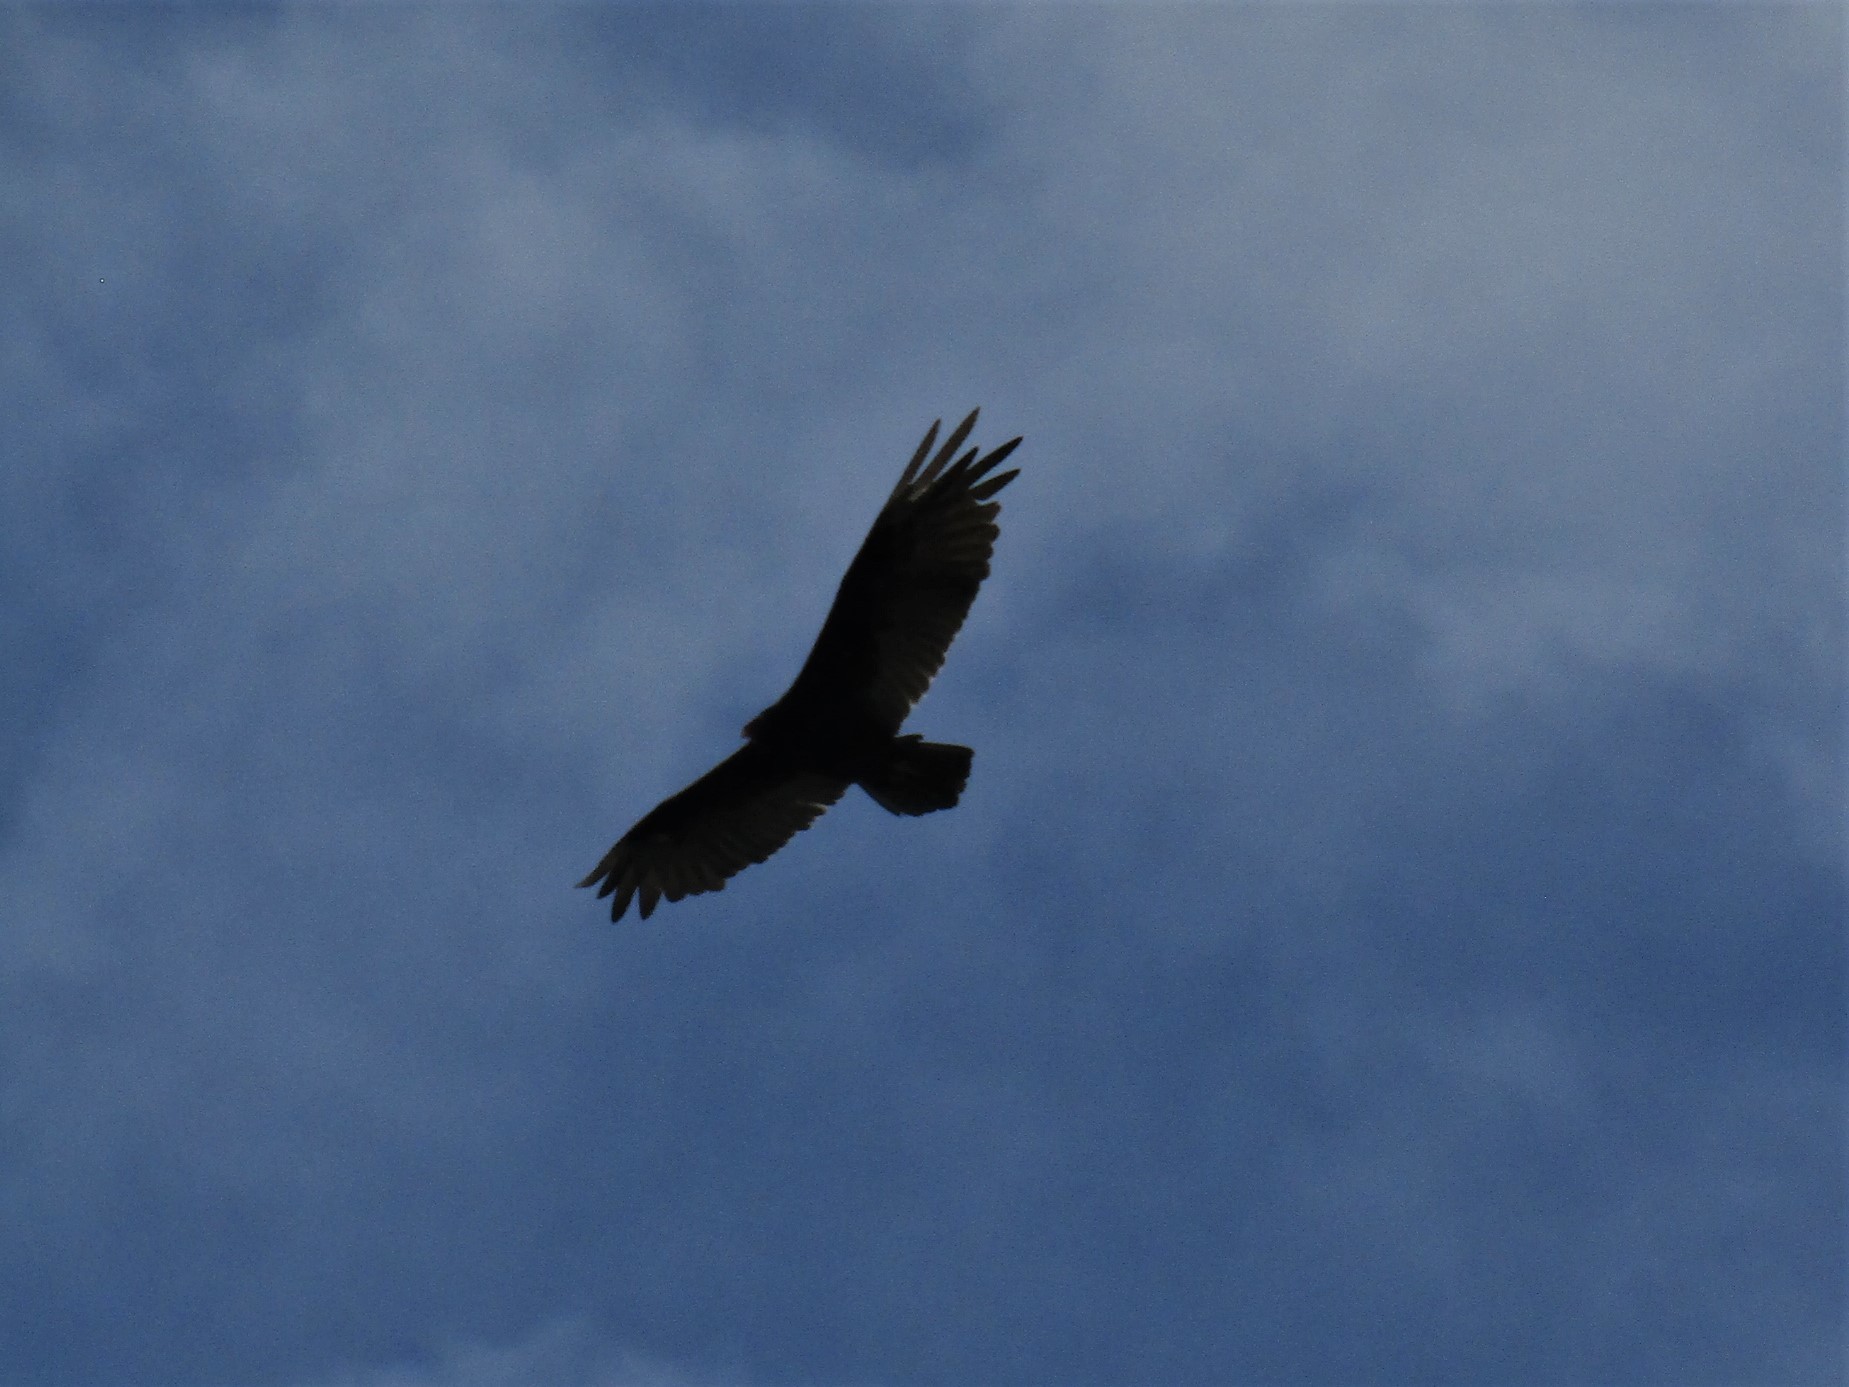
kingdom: Animalia
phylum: Chordata
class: Aves
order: Accipitriformes
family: Cathartidae
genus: Cathartes
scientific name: Cathartes aura
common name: Turkey vulture
